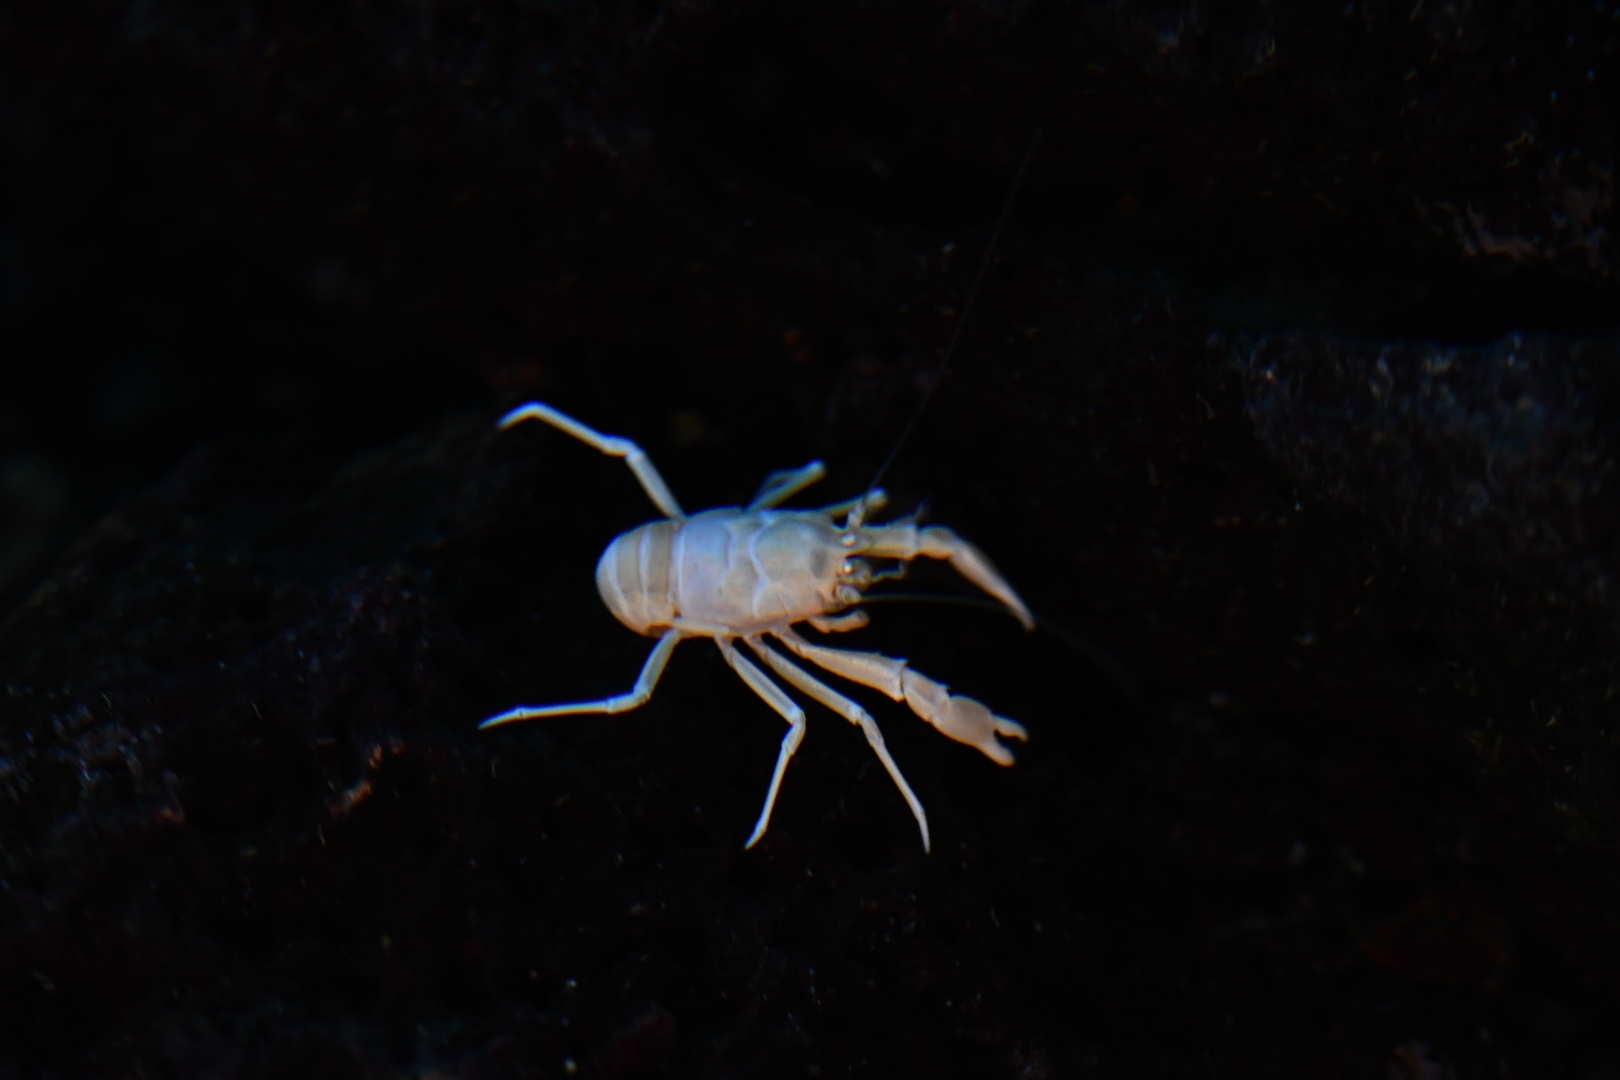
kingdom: Animalia
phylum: Arthropoda
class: Malacostraca
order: Decapoda
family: Munidopsidae
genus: Munidopsis
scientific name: Munidopsis polymorpha
